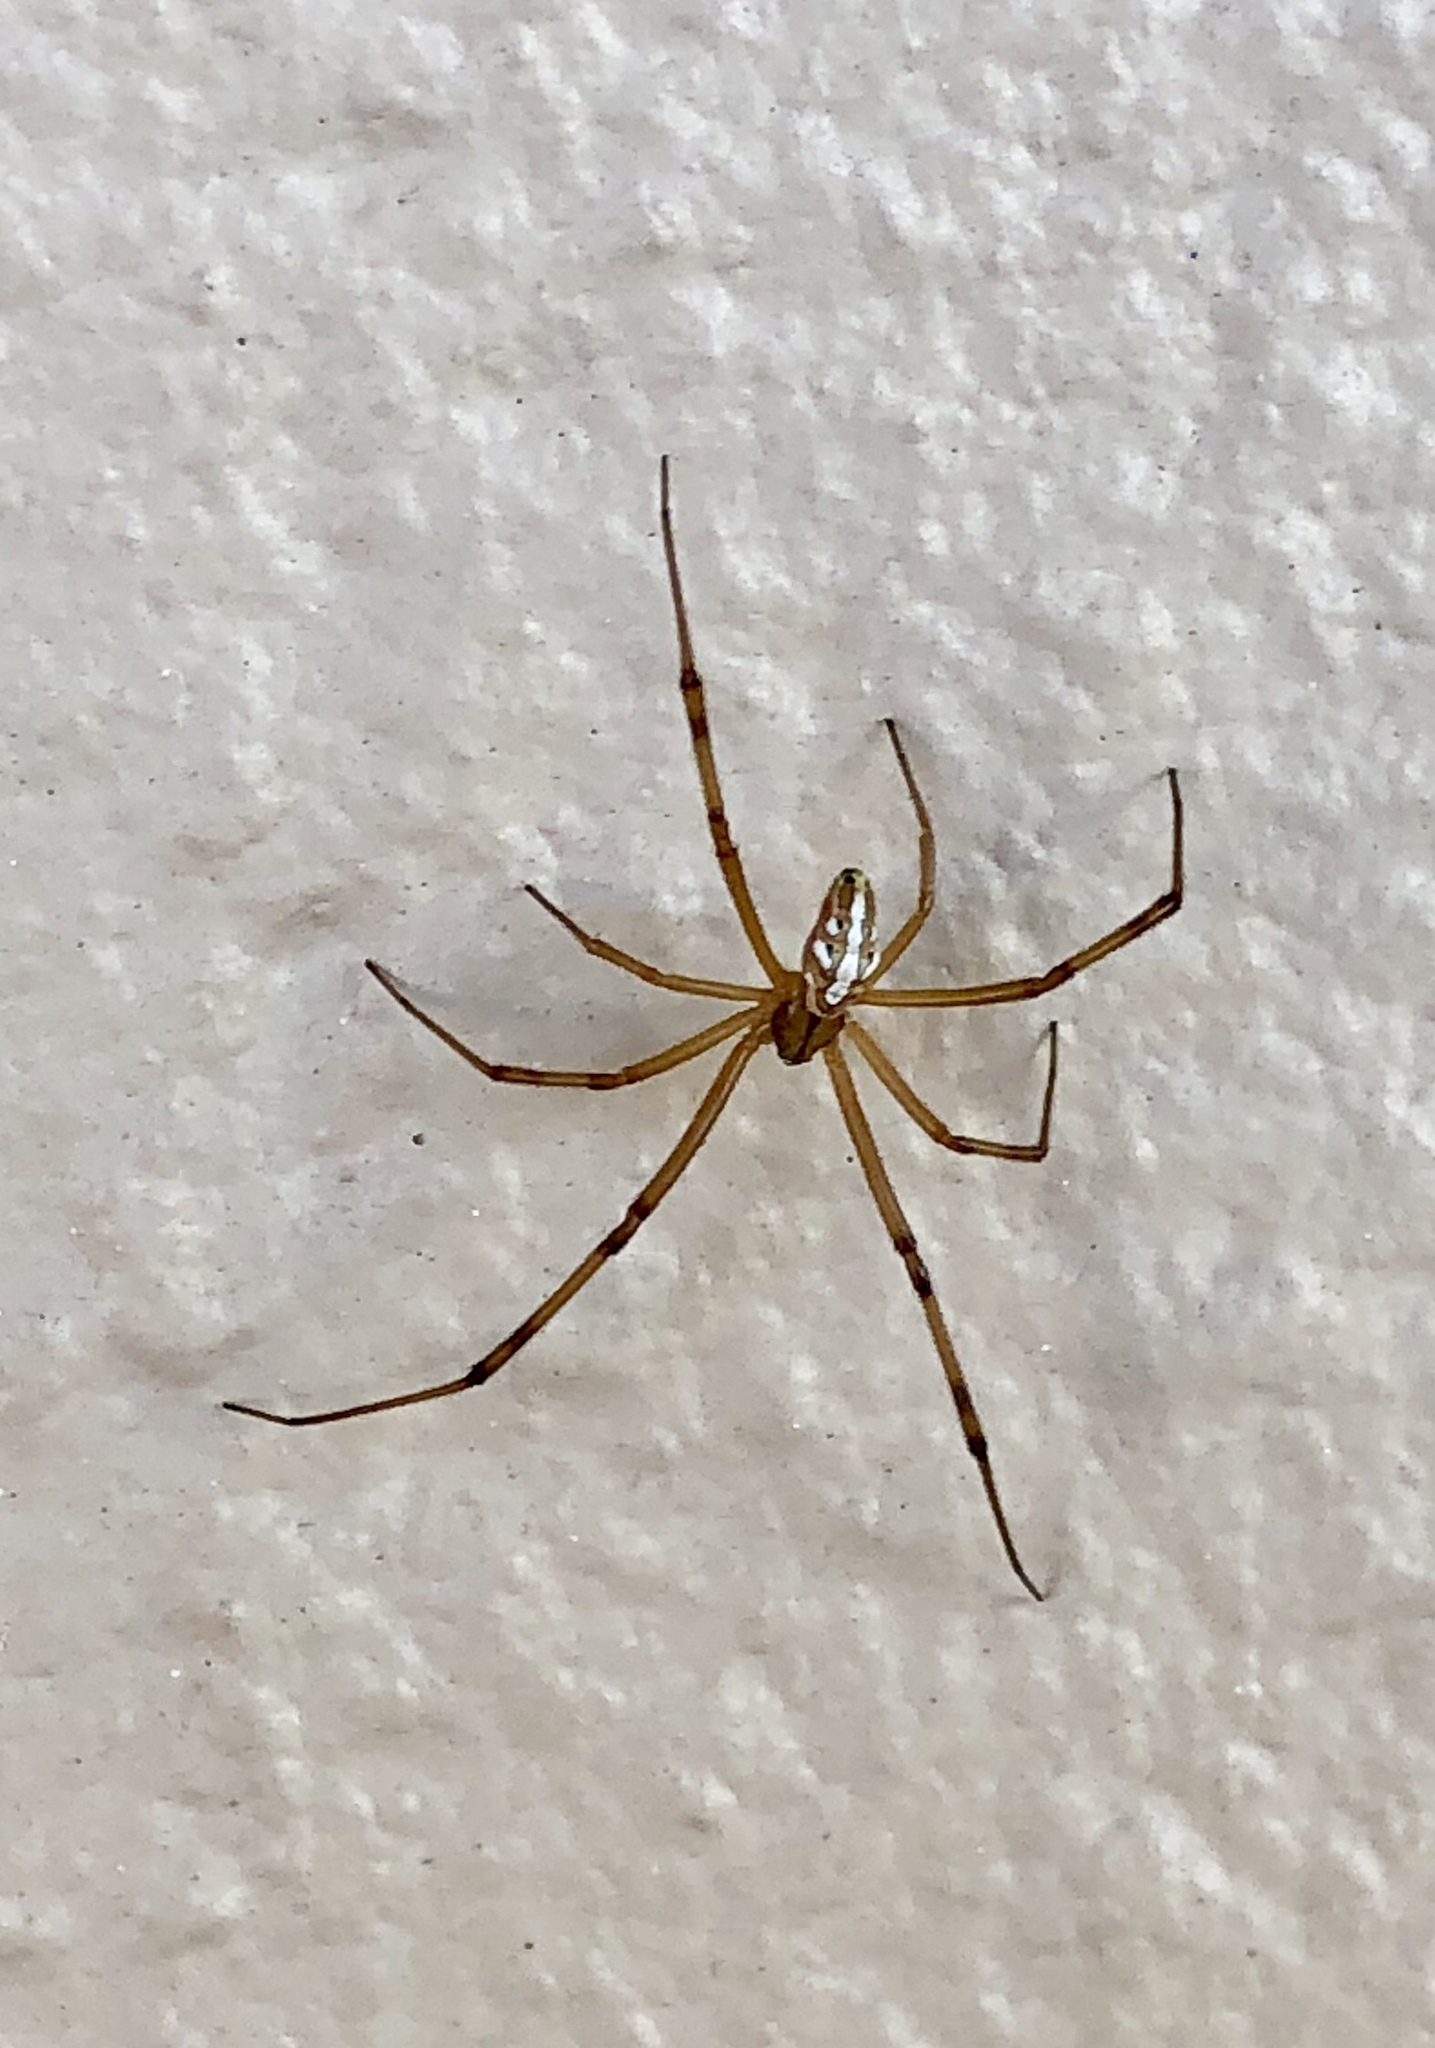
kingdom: Animalia
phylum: Arthropoda
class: Arachnida
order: Araneae
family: Theridiidae
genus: Latrodectus
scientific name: Latrodectus hesperus
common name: Western black widow
